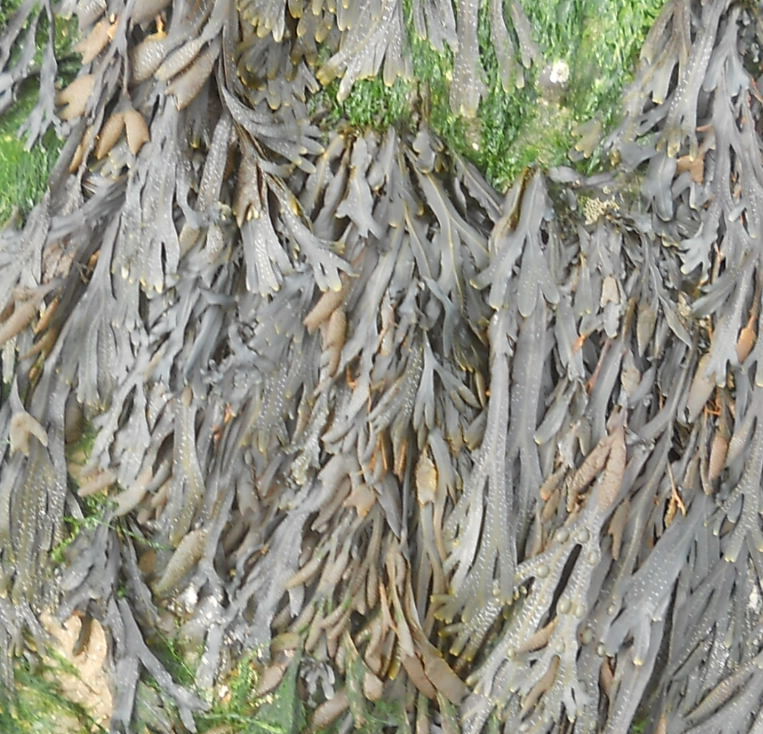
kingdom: Chromista
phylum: Ochrophyta
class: Phaeophyceae
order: Fucales
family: Fucaceae
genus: Fucus
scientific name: Fucus vesiculosus
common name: Bladder wrack
